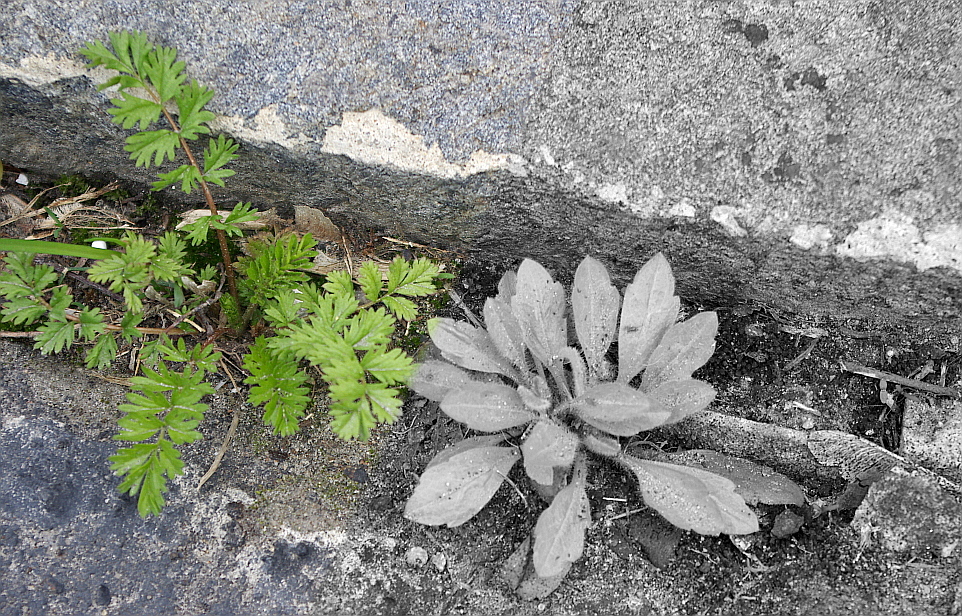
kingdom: Plantae
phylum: Tracheophyta
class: Magnoliopsida
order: Rosales
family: Rosaceae
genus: Potentilla
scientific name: Potentilla supina
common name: Prostrate cinquefoil
